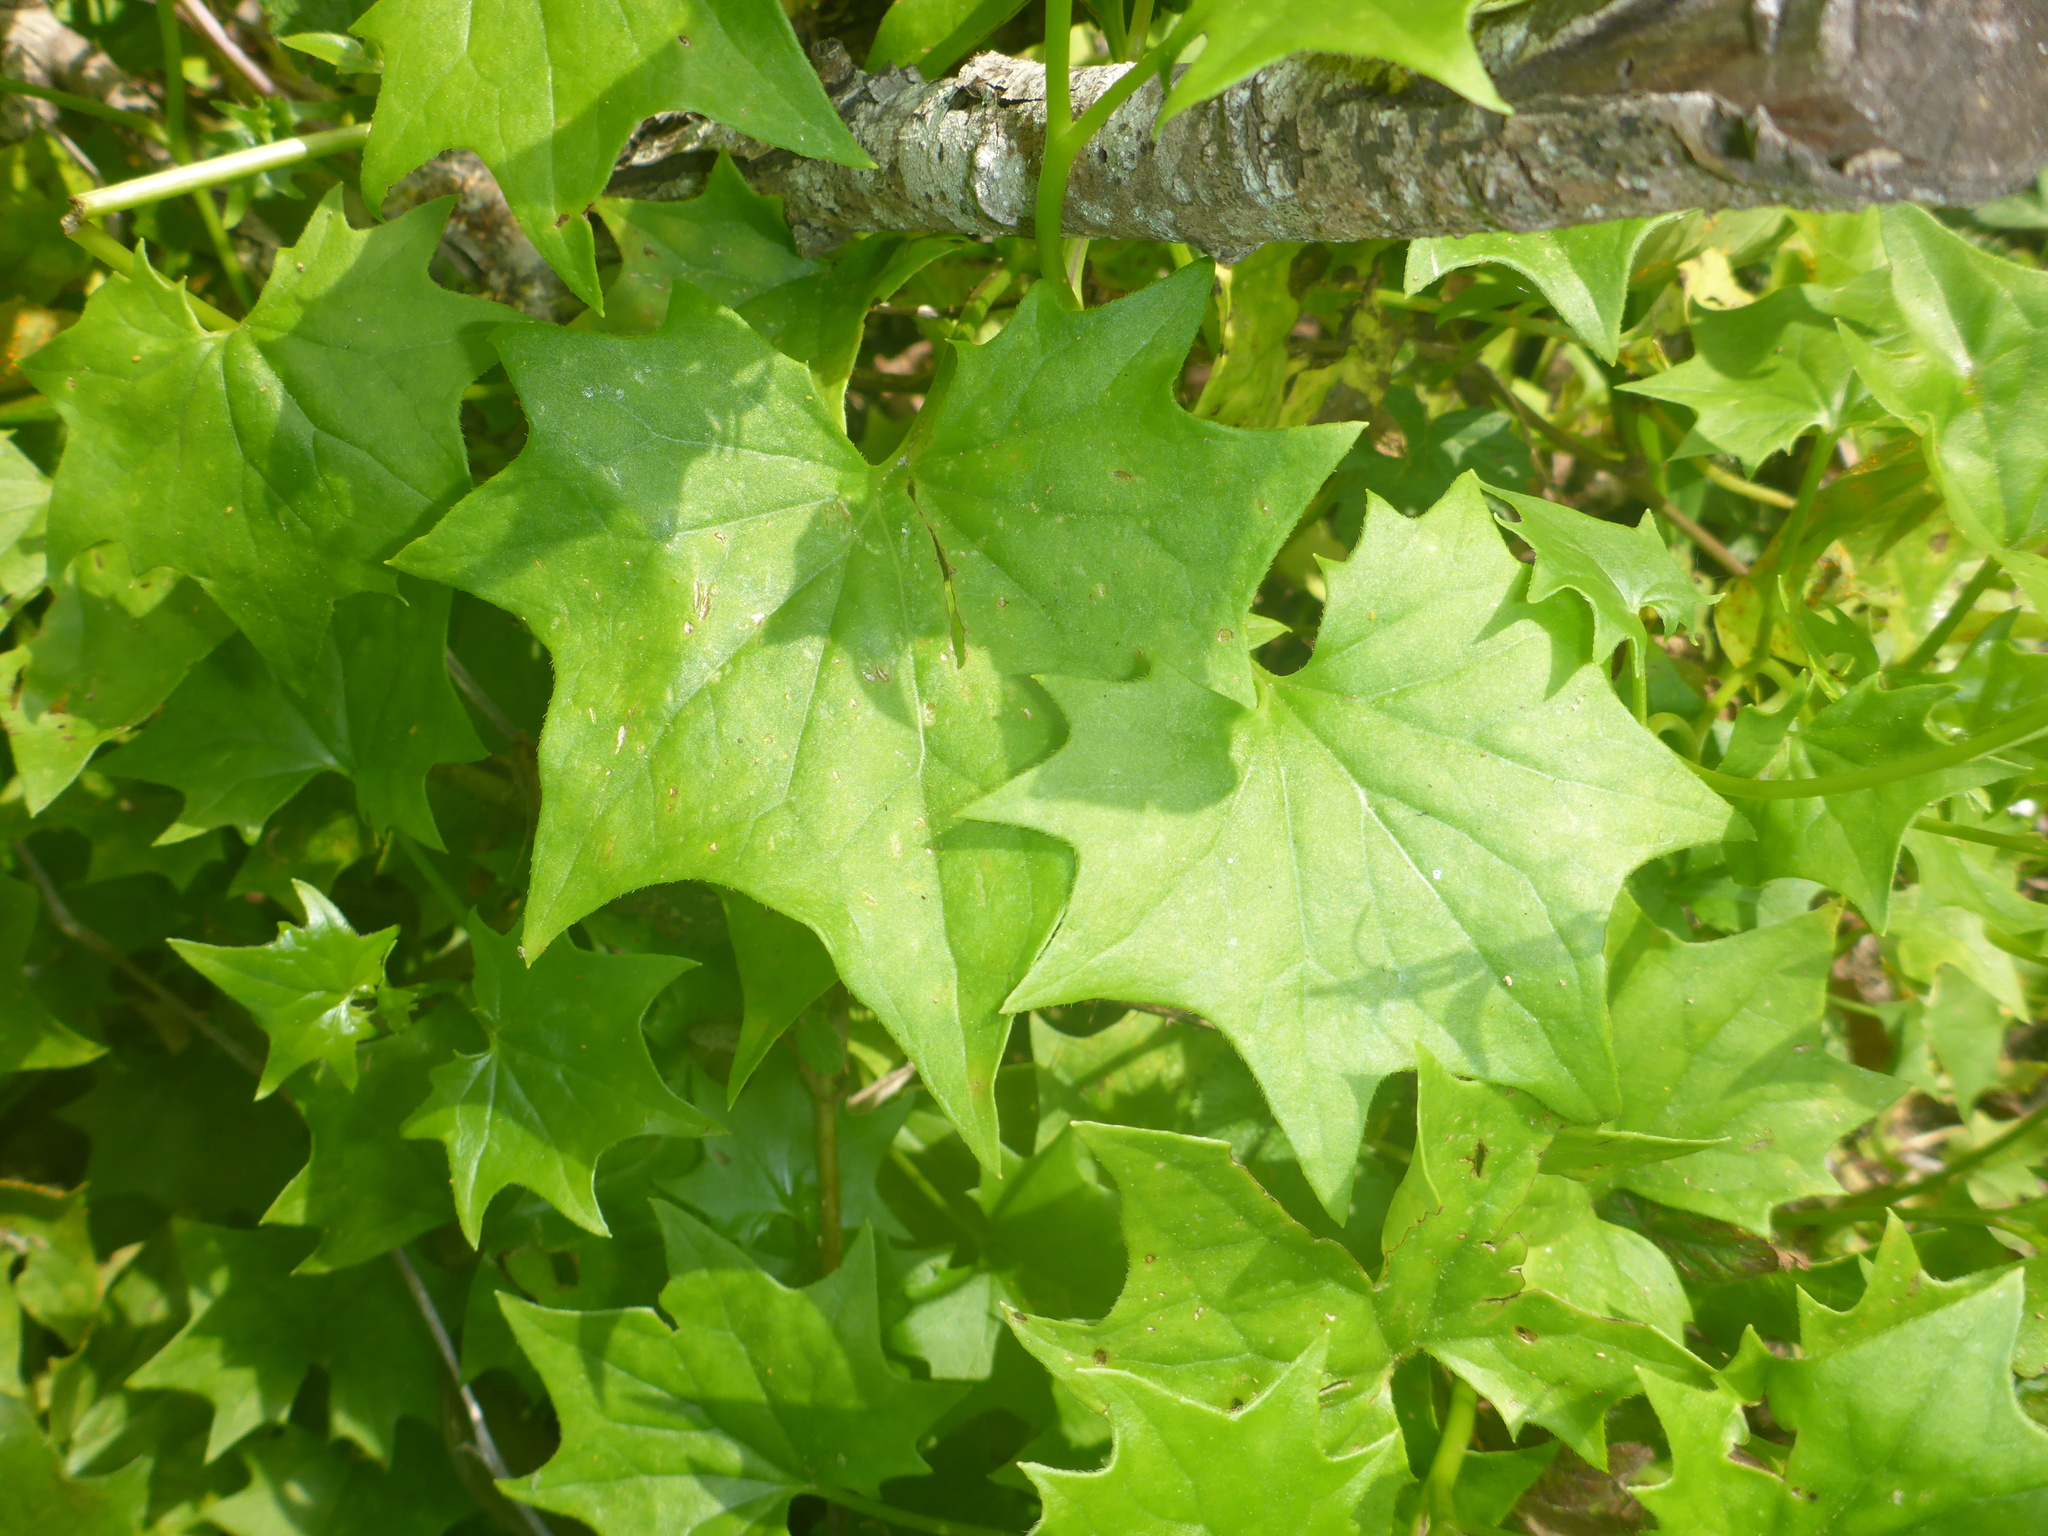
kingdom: Plantae
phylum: Tracheophyta
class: Magnoliopsida
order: Asterales
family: Asteraceae
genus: Delairea
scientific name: Delairea odorata
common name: Cape-ivy
